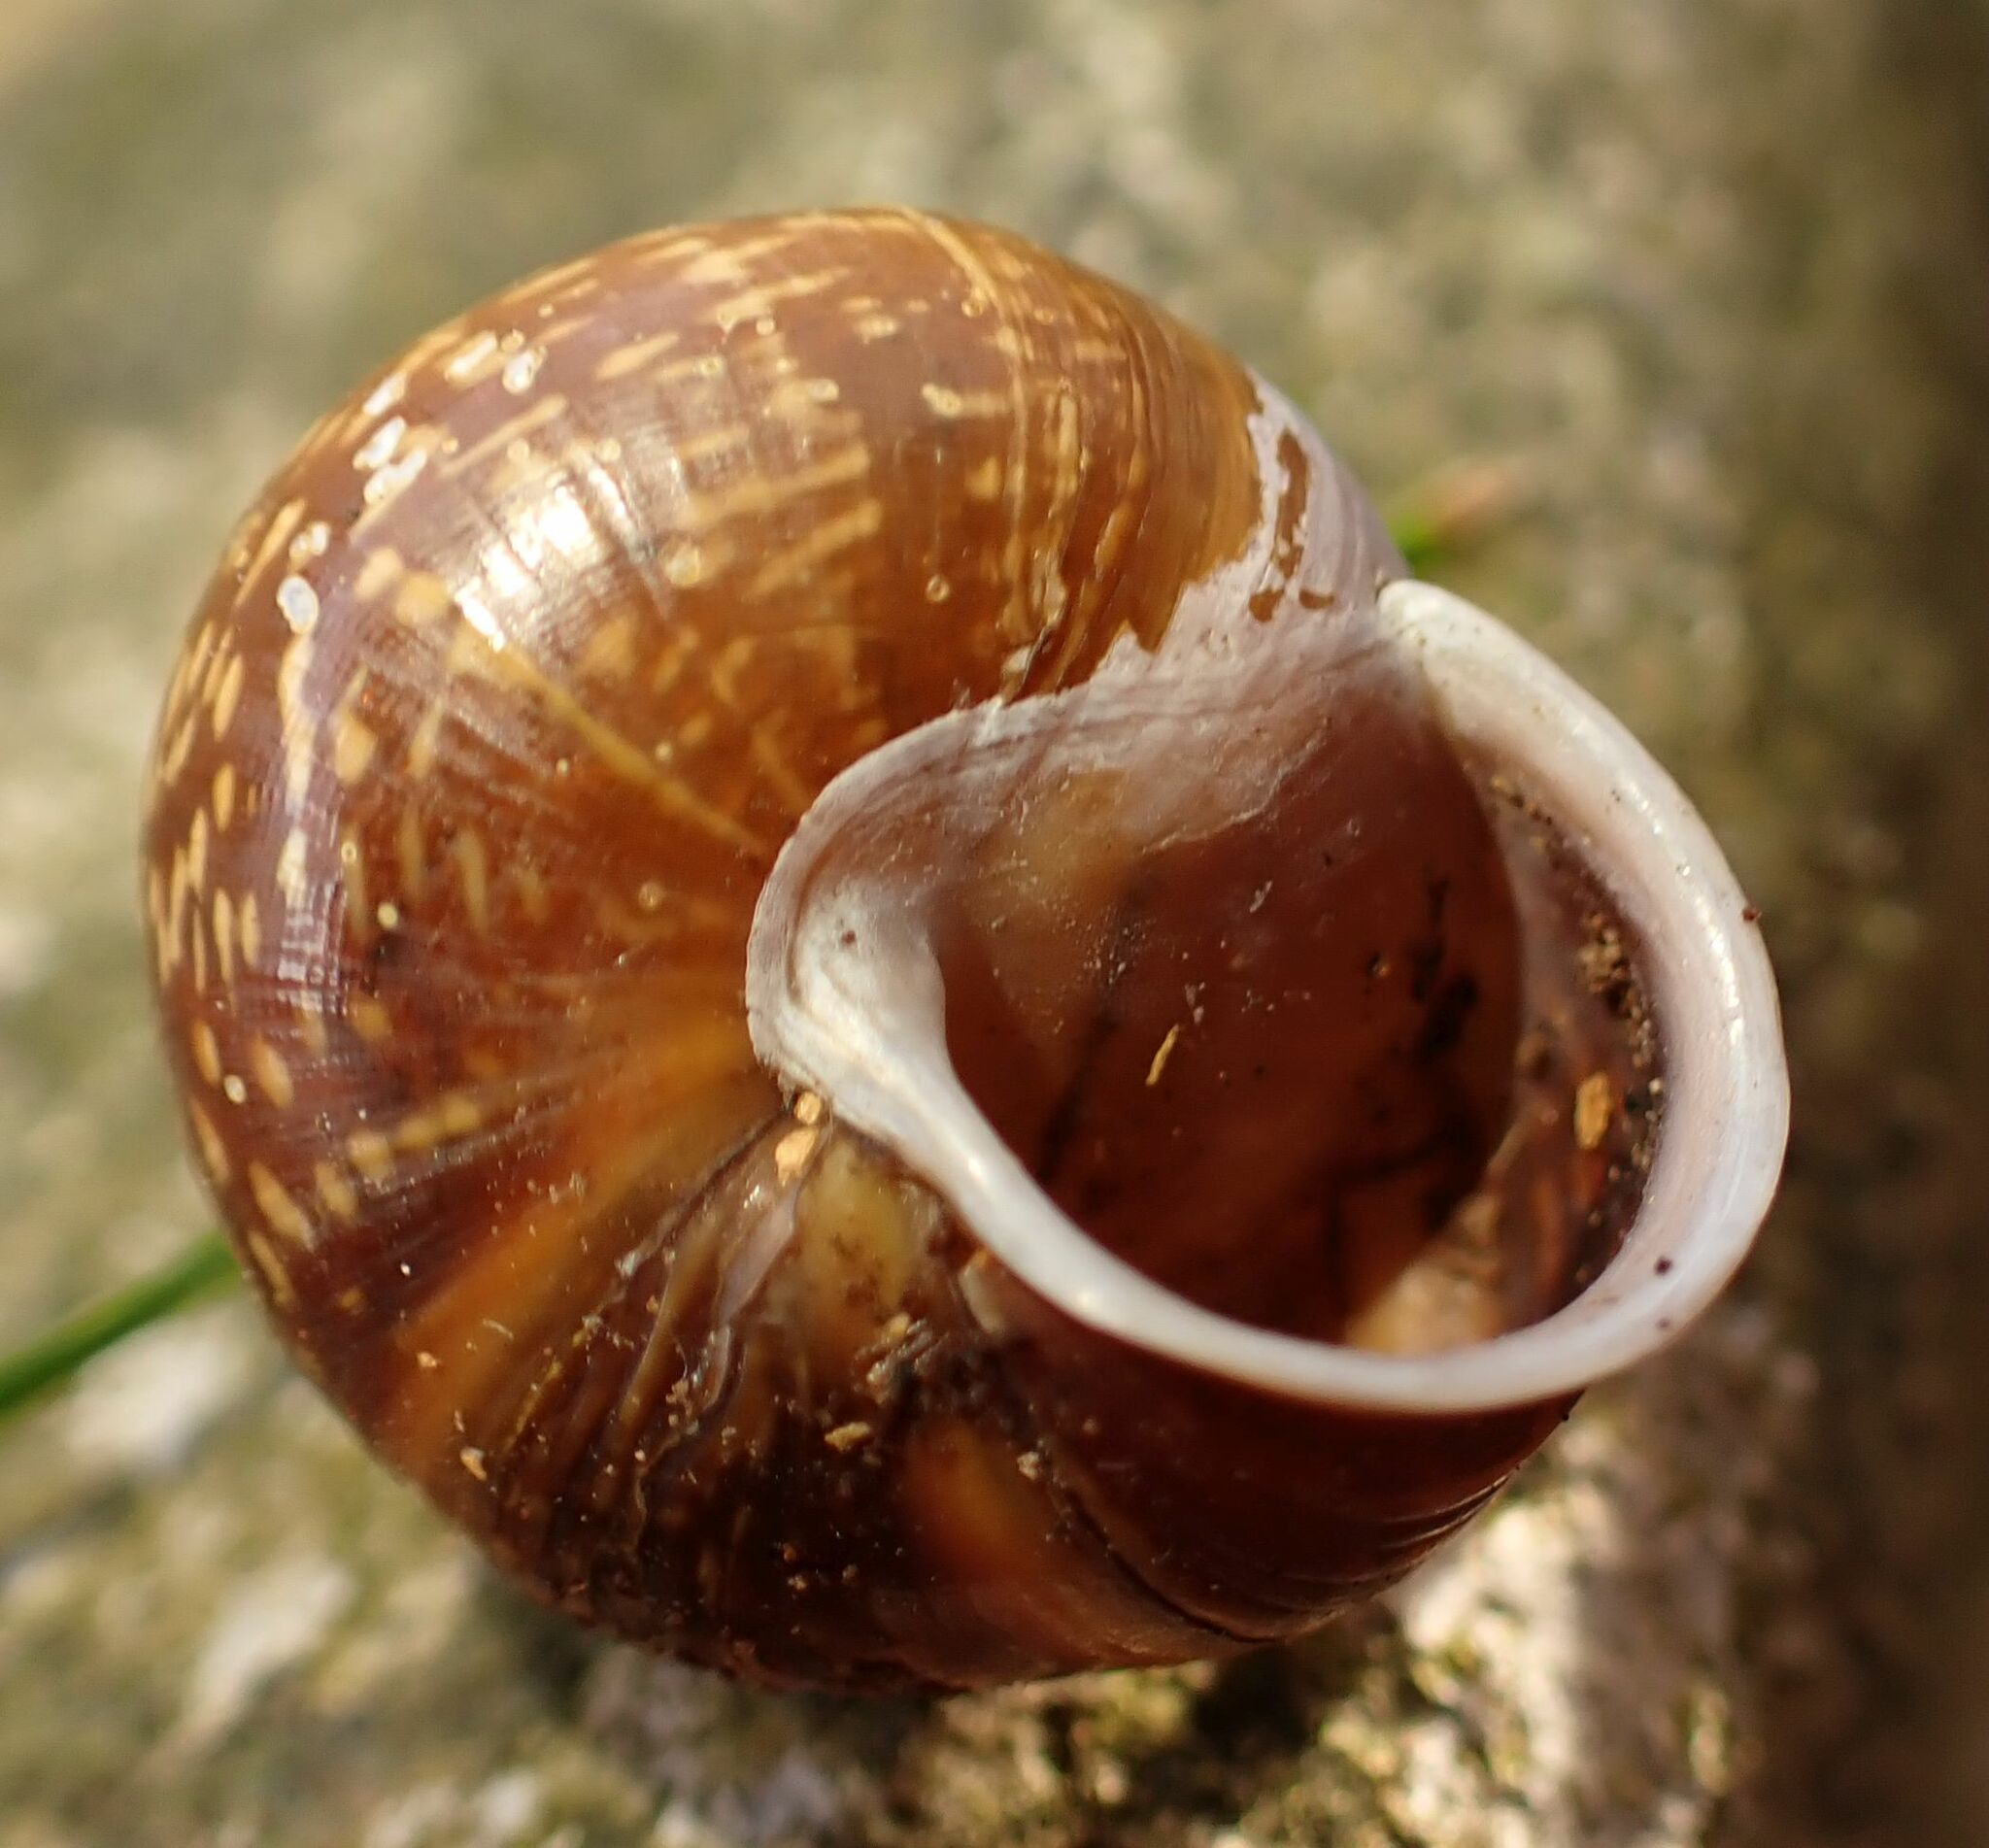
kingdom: Animalia
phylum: Mollusca
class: Gastropoda
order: Stylommatophora
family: Helicidae
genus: Arianta
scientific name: Arianta arbustorum
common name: Copse snail
